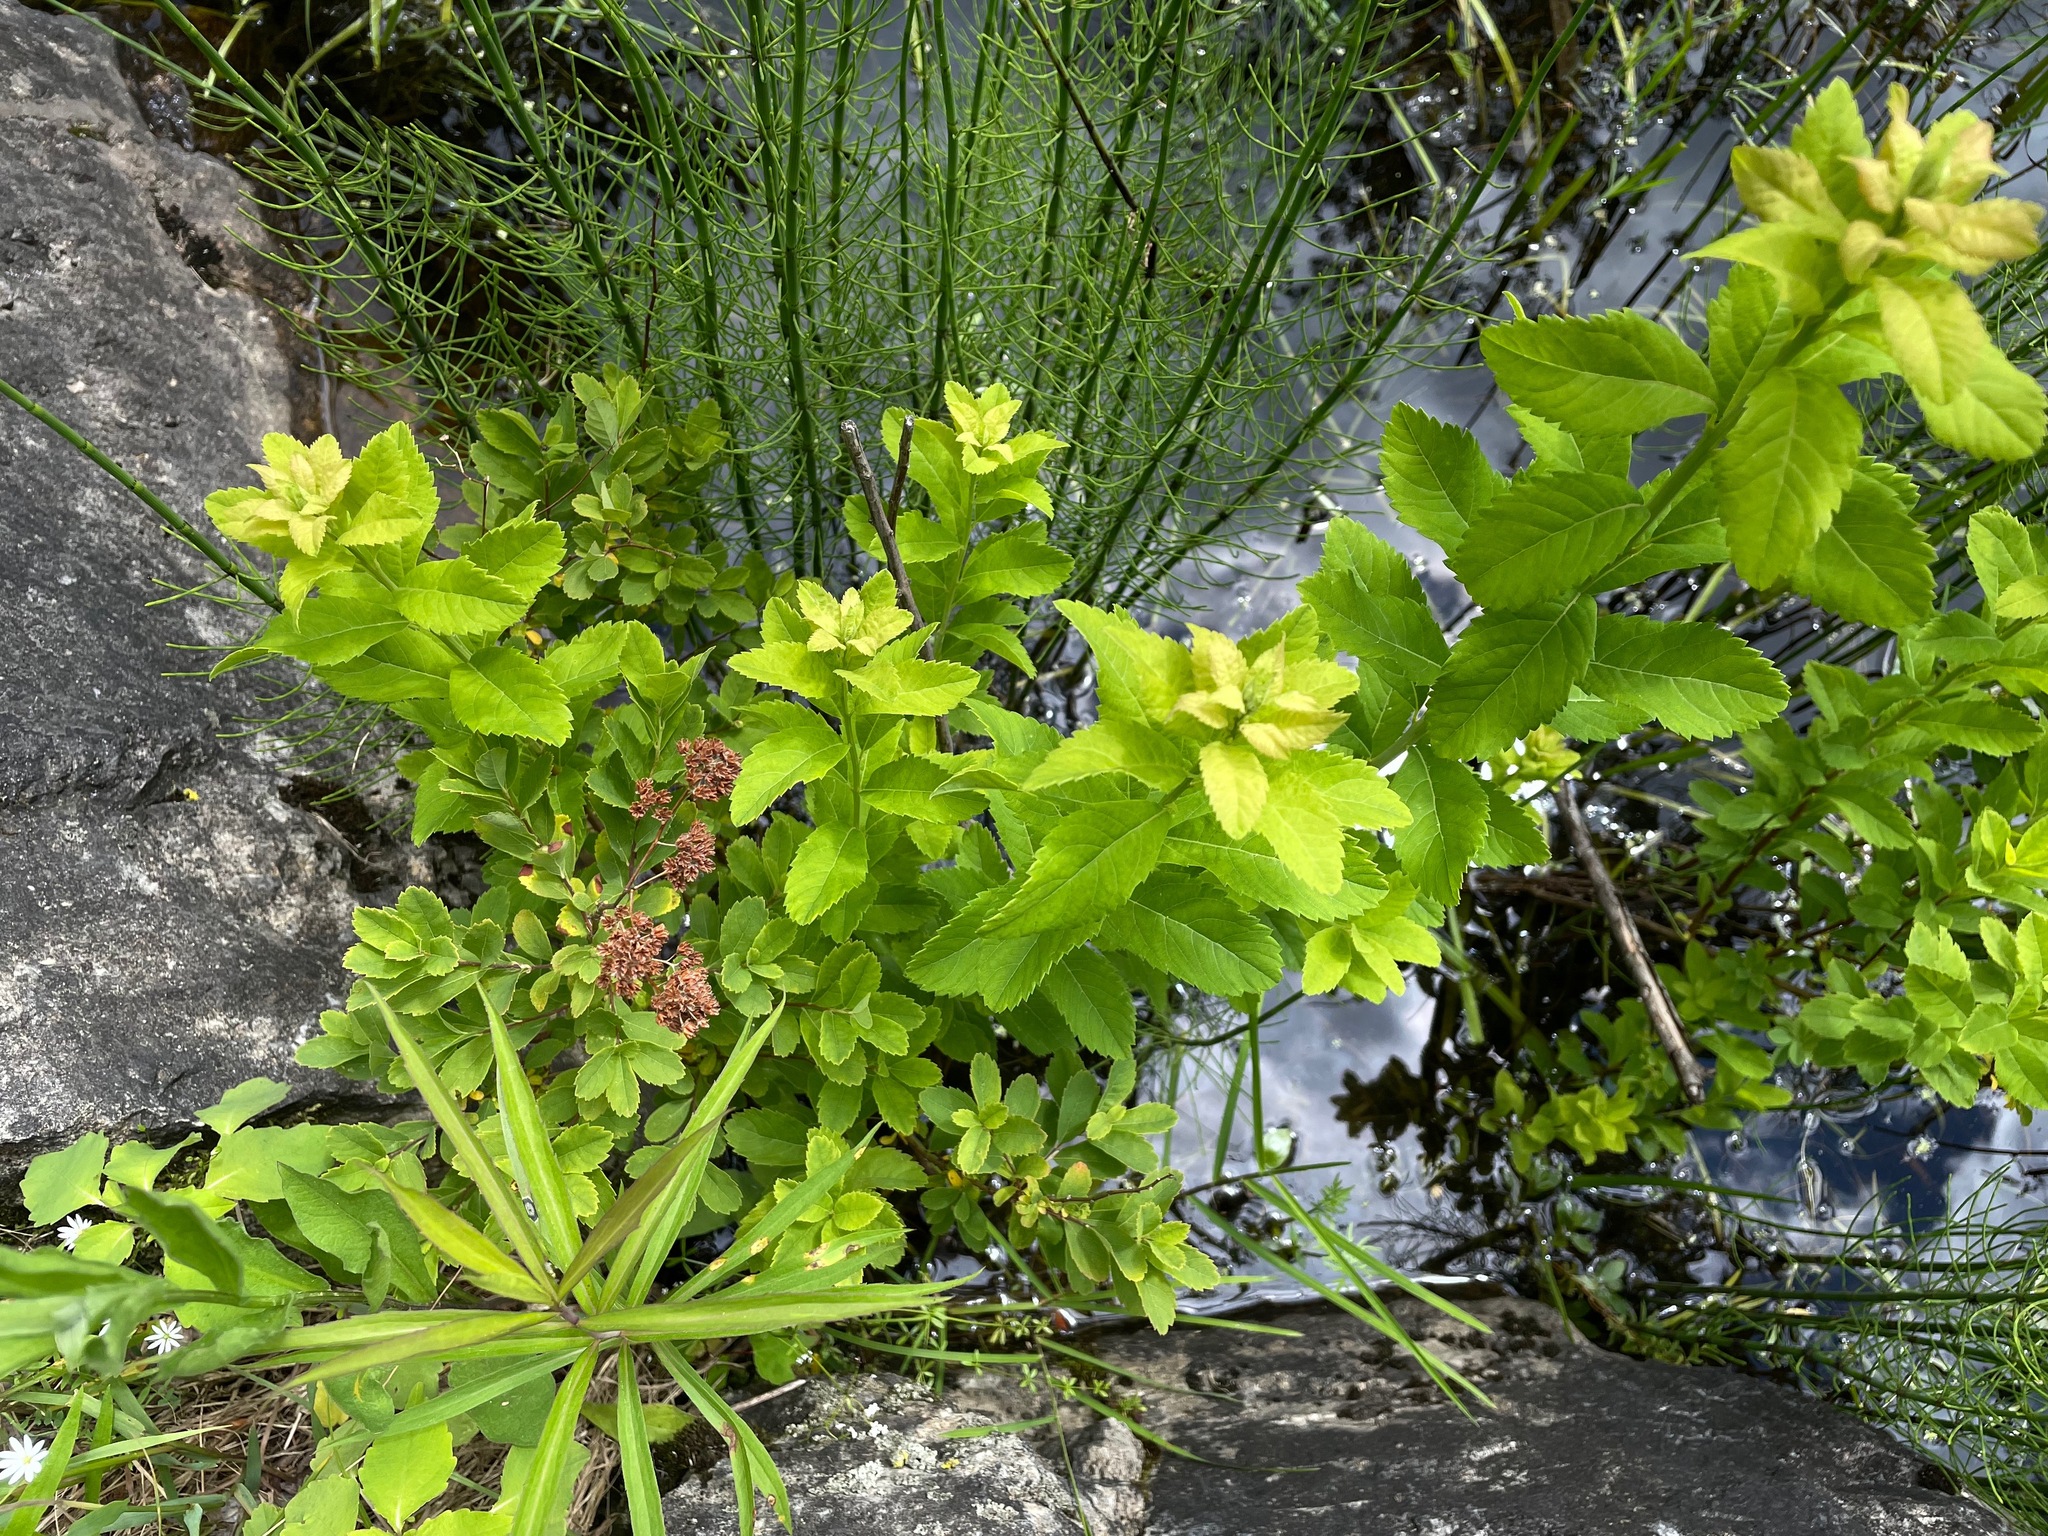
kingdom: Plantae
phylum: Tracheophyta
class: Magnoliopsida
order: Rosales
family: Rosaceae
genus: Spiraea
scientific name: Spiraea alba
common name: Pale bridewort
